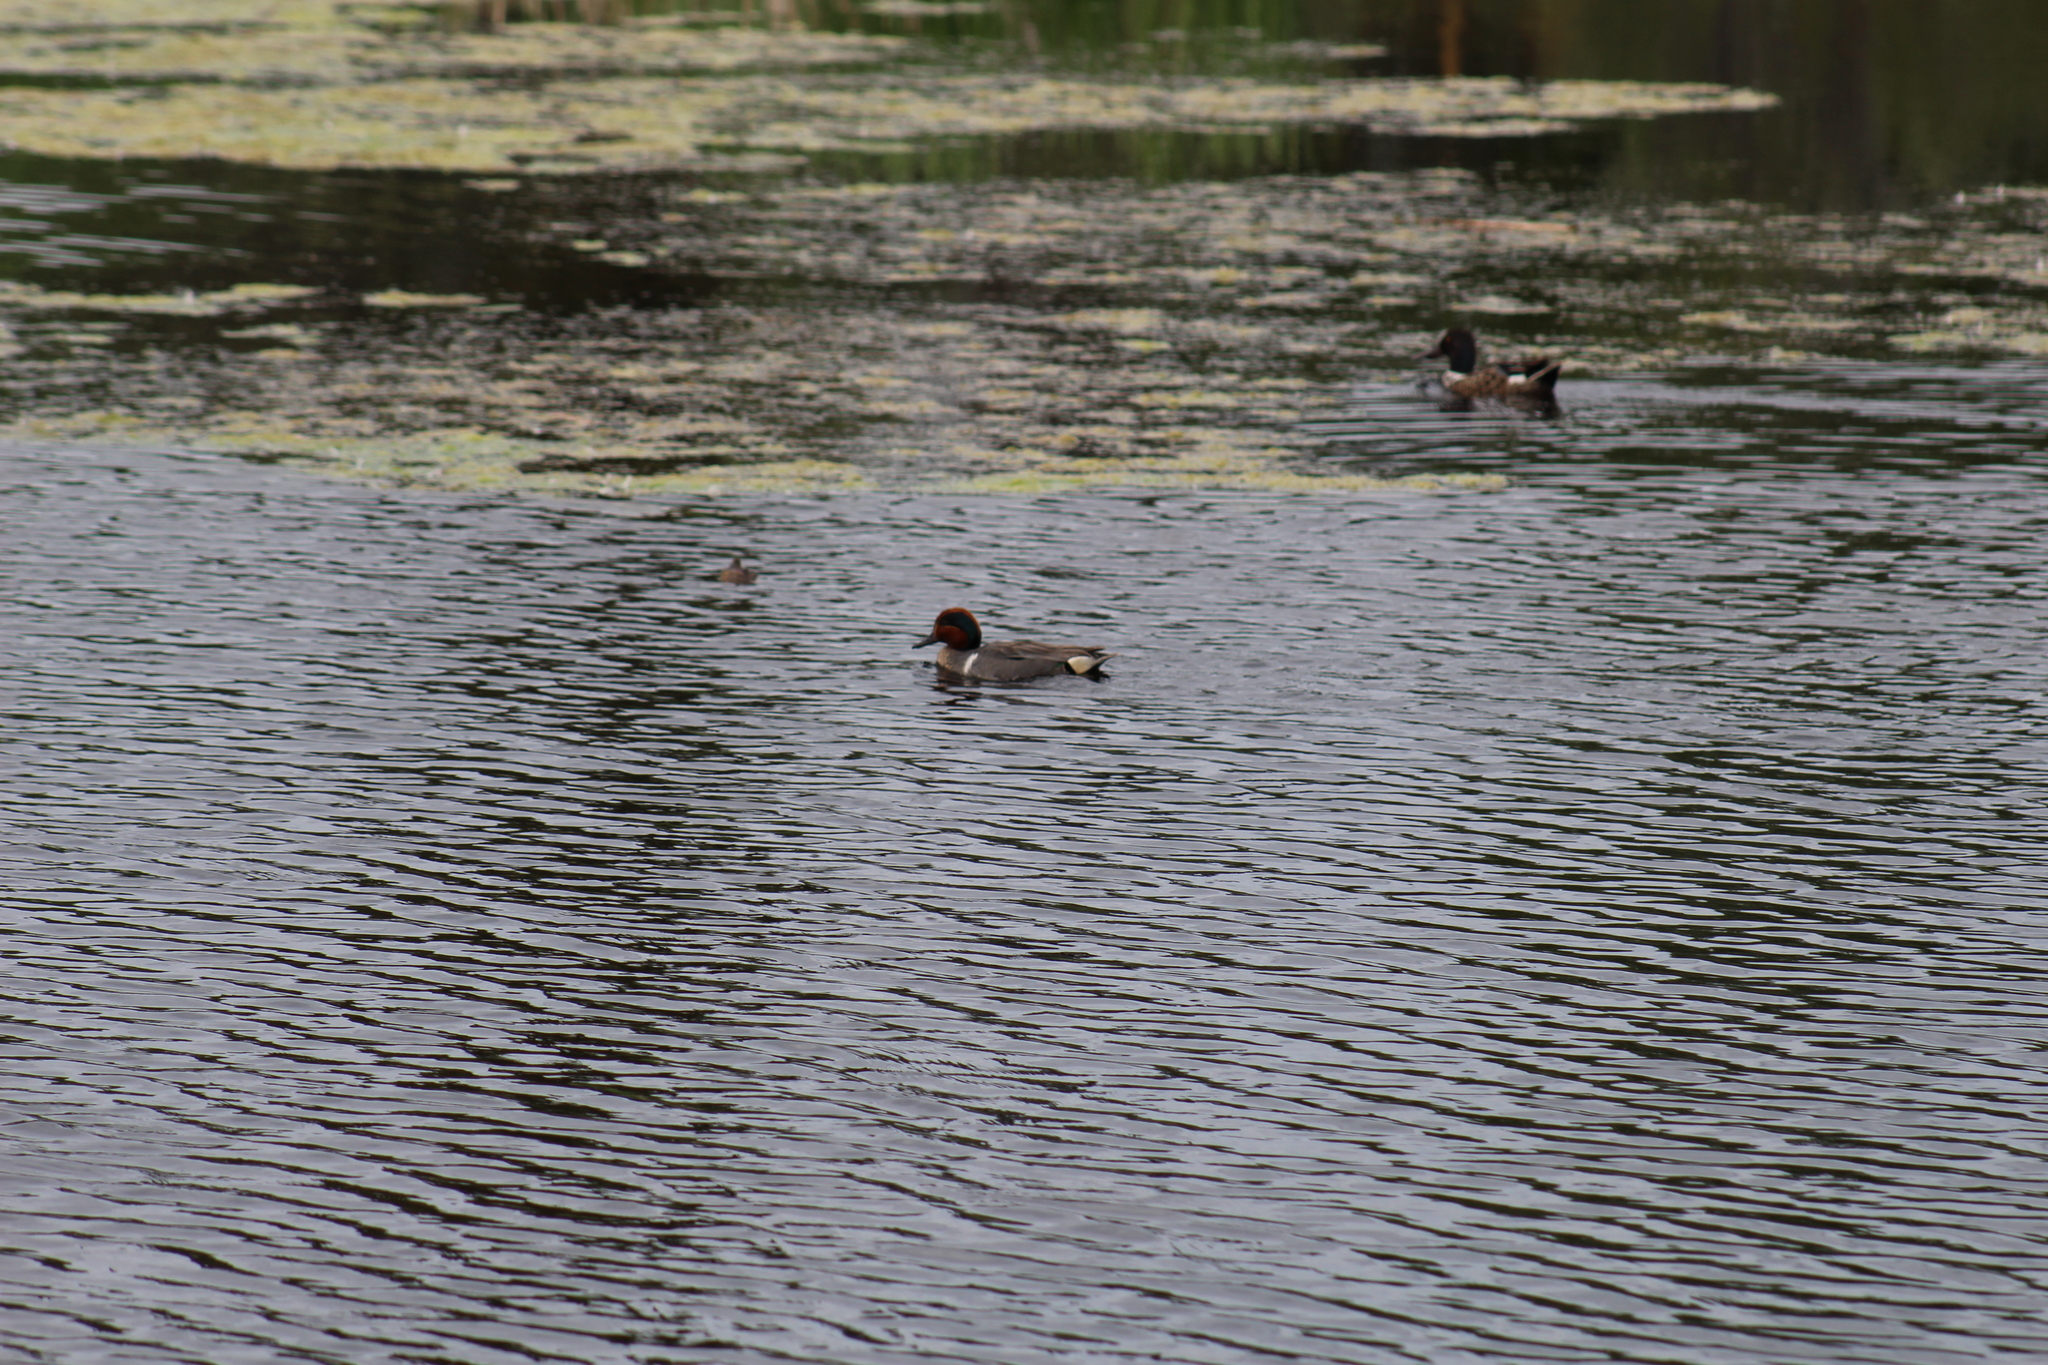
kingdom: Animalia
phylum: Chordata
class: Aves
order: Anseriformes
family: Anatidae
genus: Anas
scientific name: Anas crecca
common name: Eurasian teal
